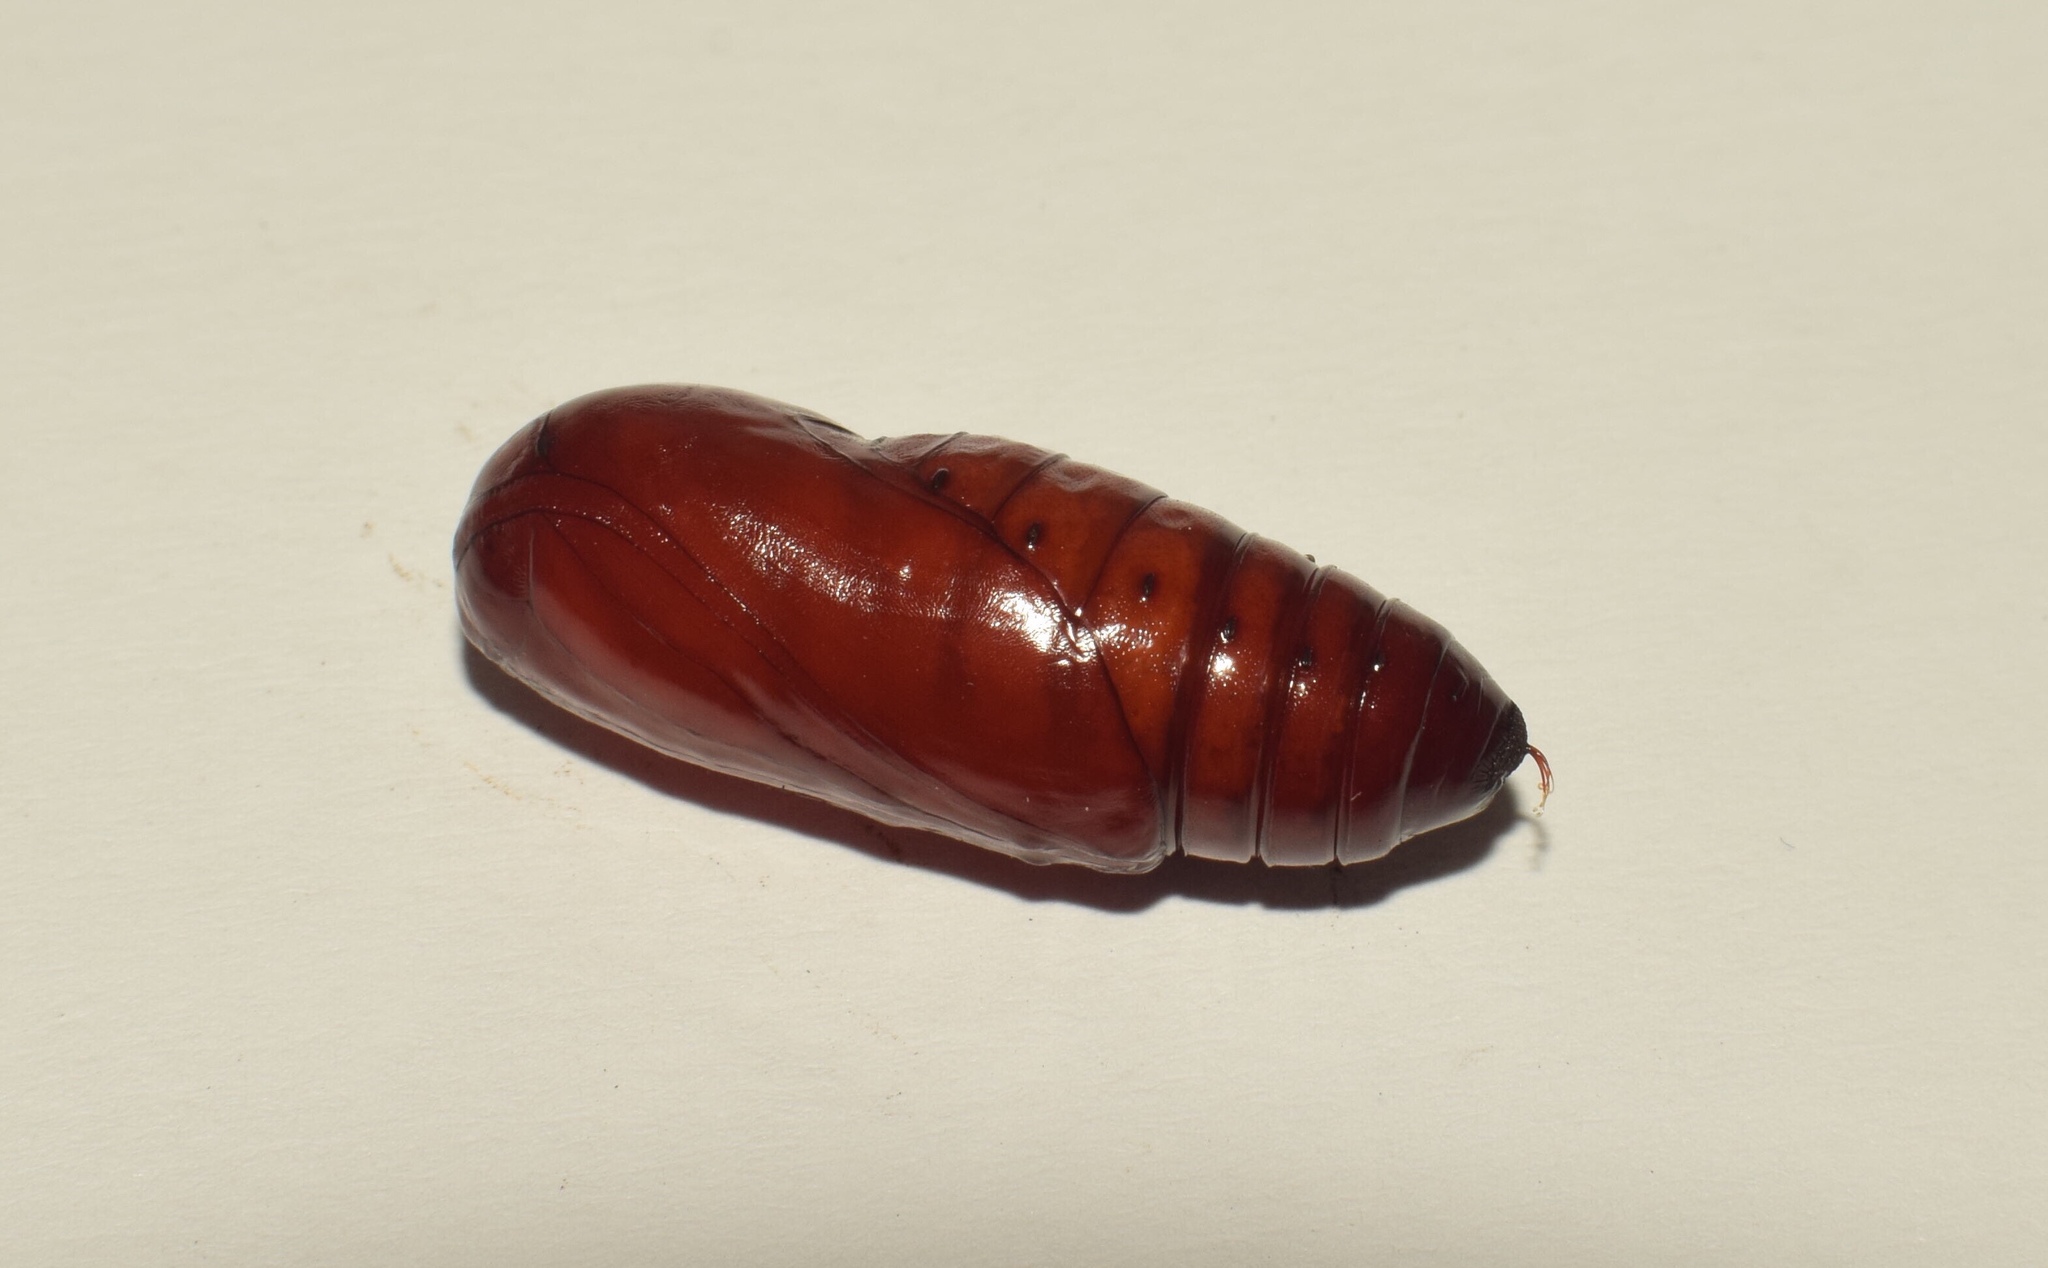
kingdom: Animalia
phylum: Arthropoda
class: Insecta
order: Lepidoptera
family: Erebidae
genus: Amerila
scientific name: Amerila bubo
